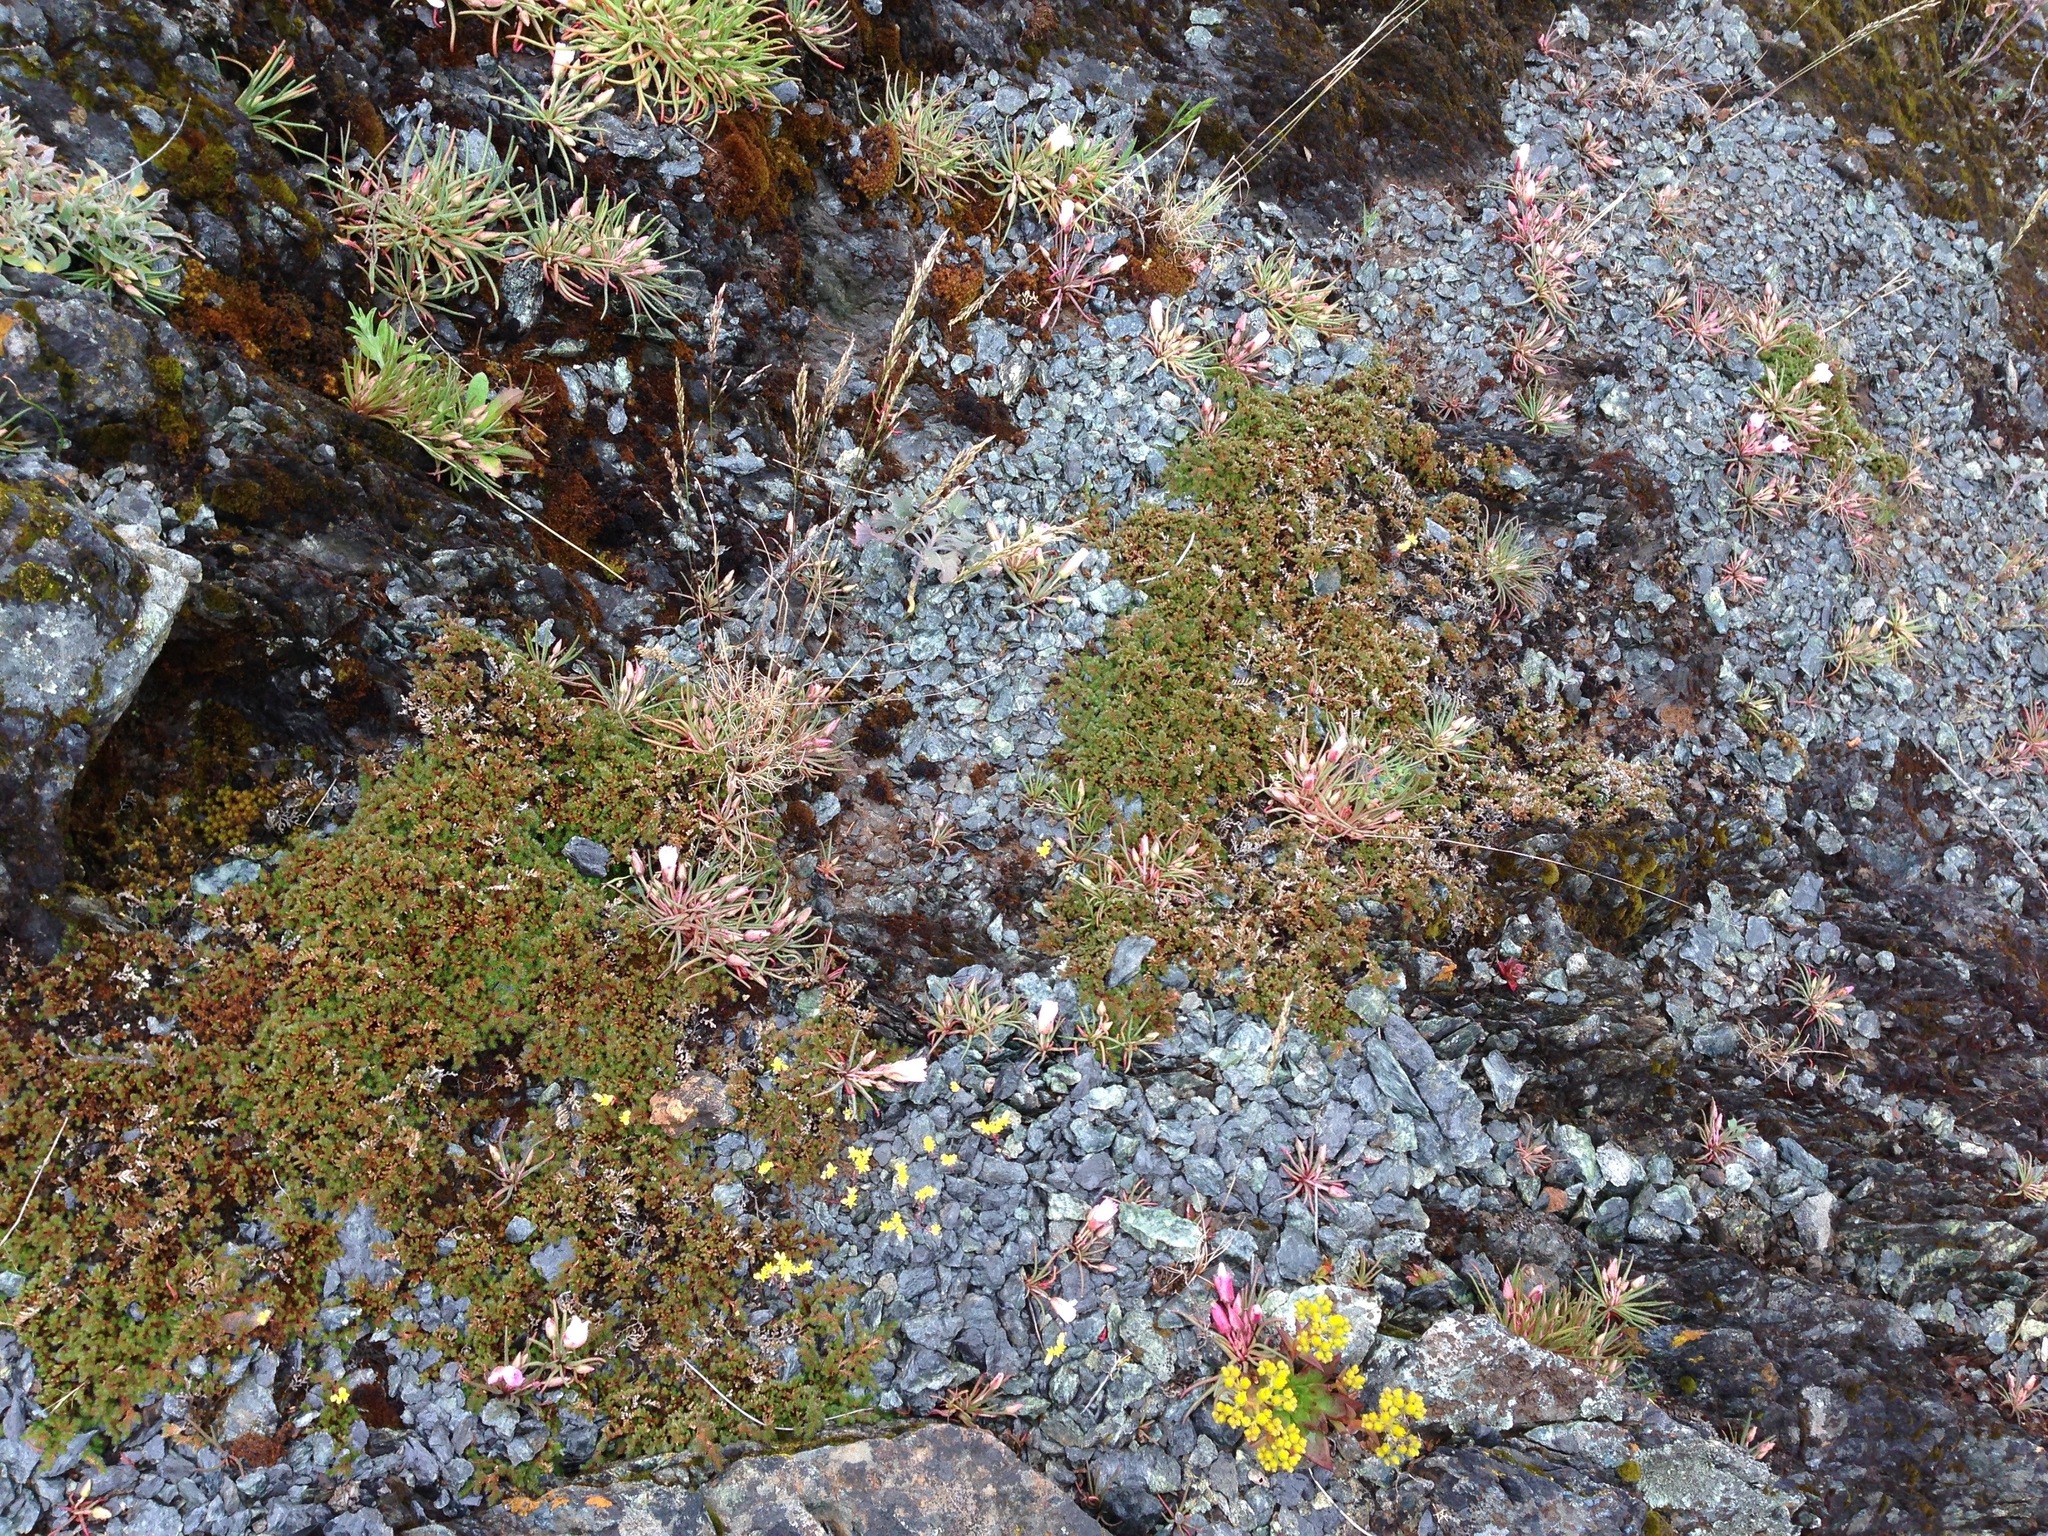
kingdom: Plantae
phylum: Tracheophyta
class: Magnoliopsida
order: Caryophyllales
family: Montiaceae
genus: Lewisia
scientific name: Lewisia rediviva
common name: Bitter-root
